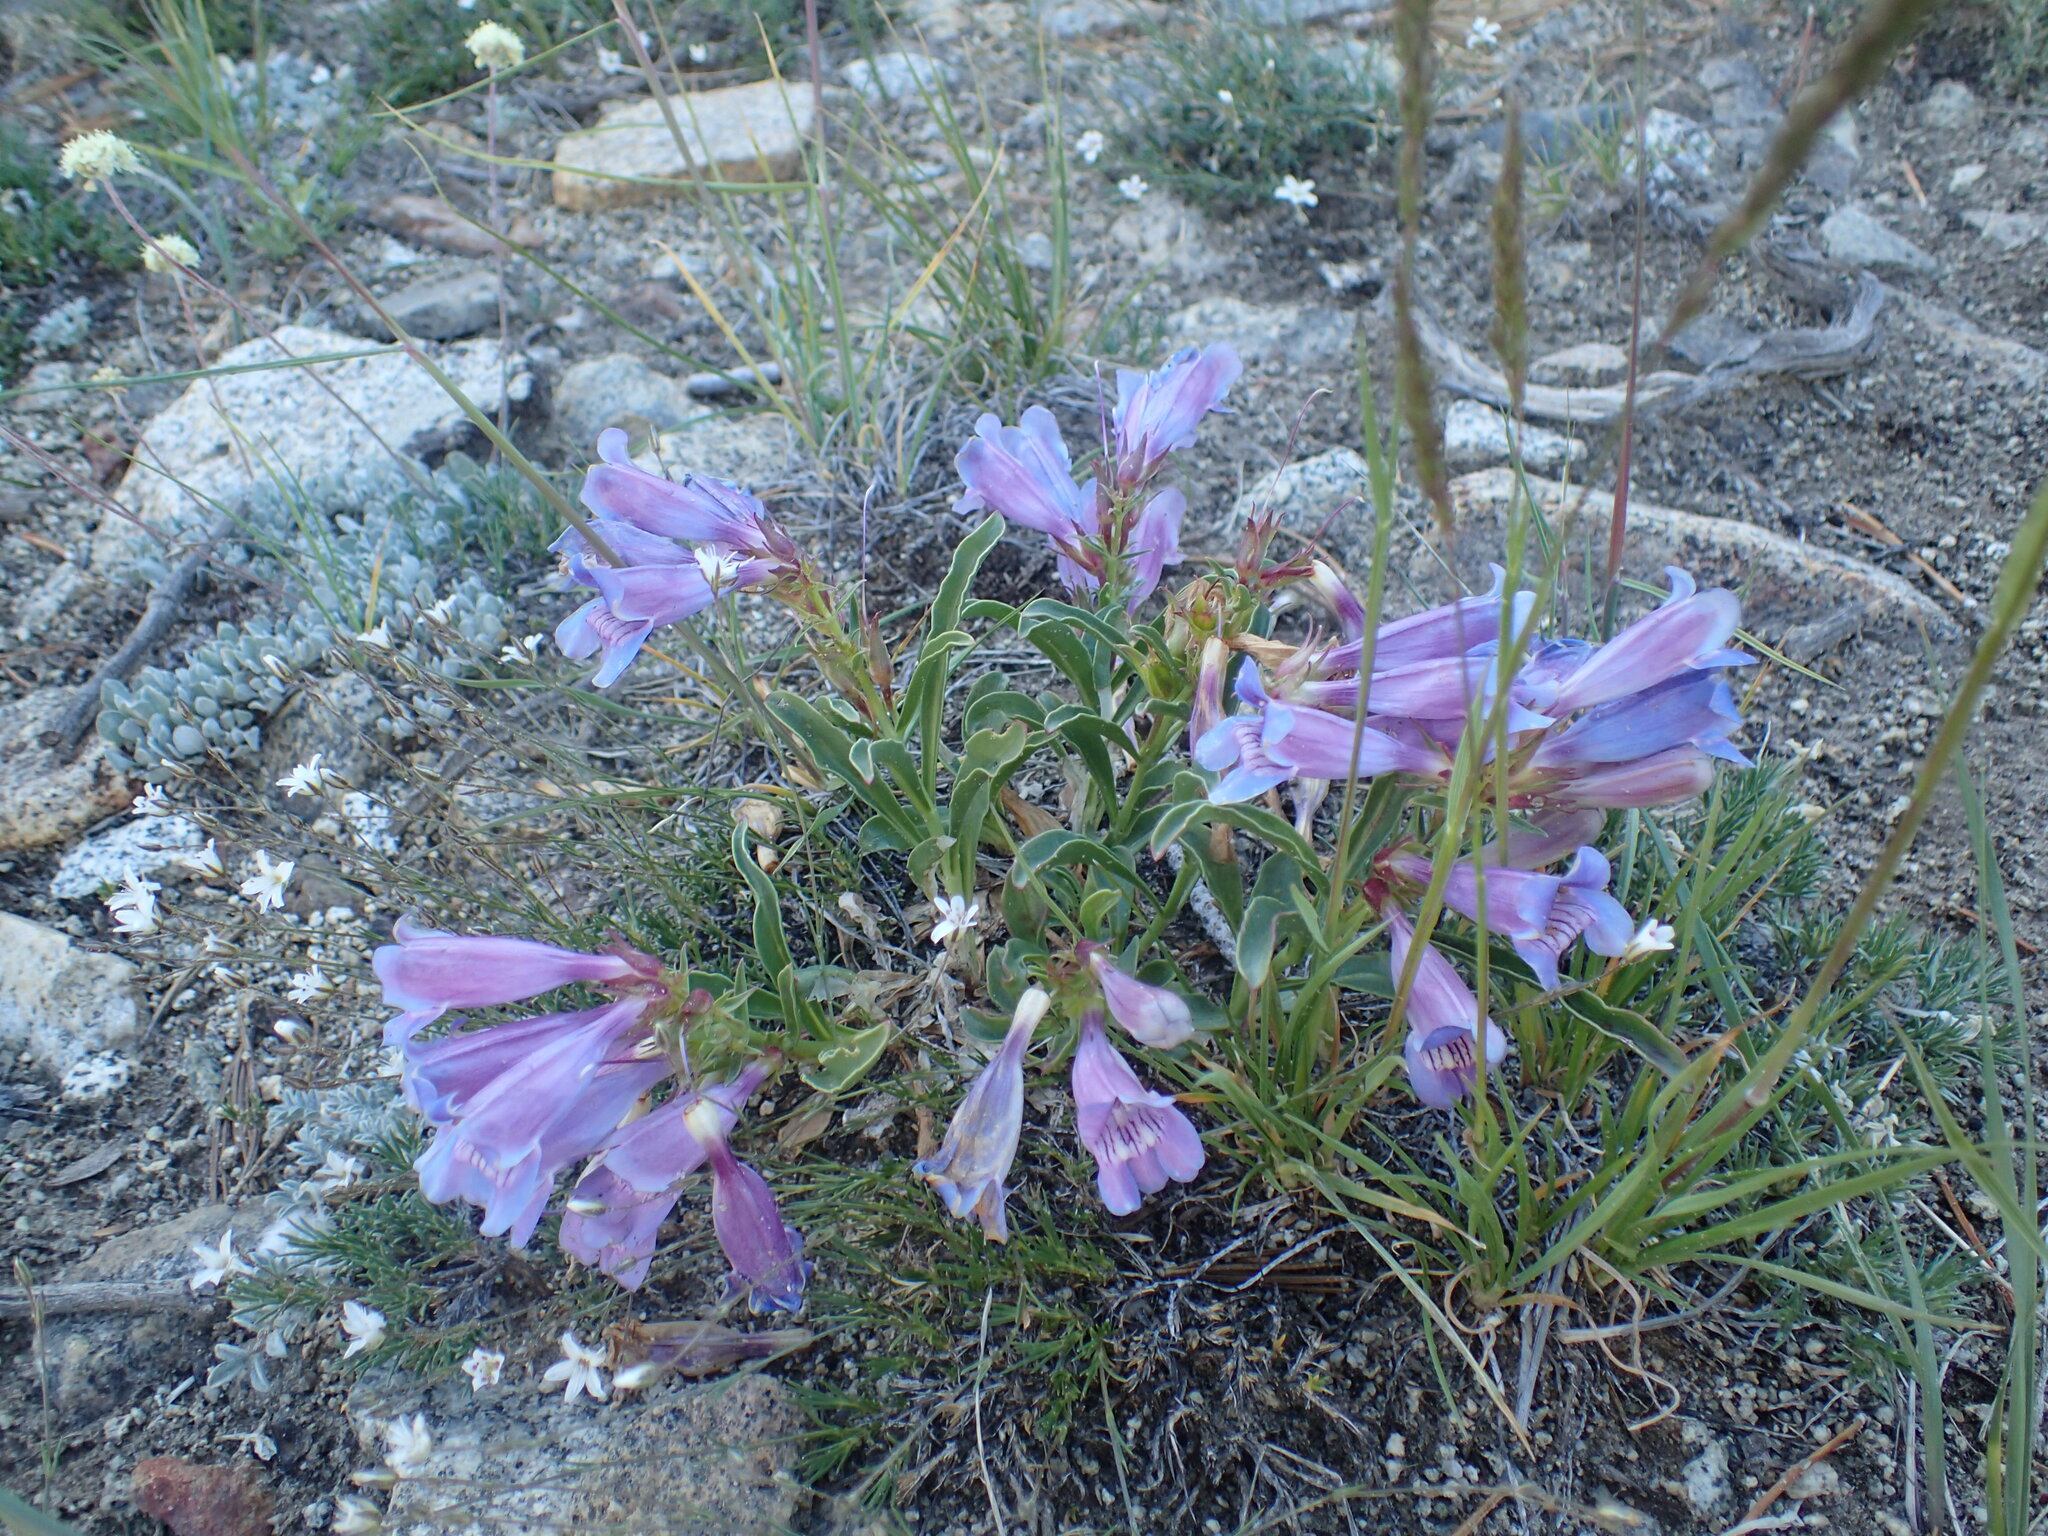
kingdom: Plantae
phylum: Tracheophyta
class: Magnoliopsida
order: Lamiales
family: Plantaginaceae
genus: Penstemon
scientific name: Penstemon speciosus
